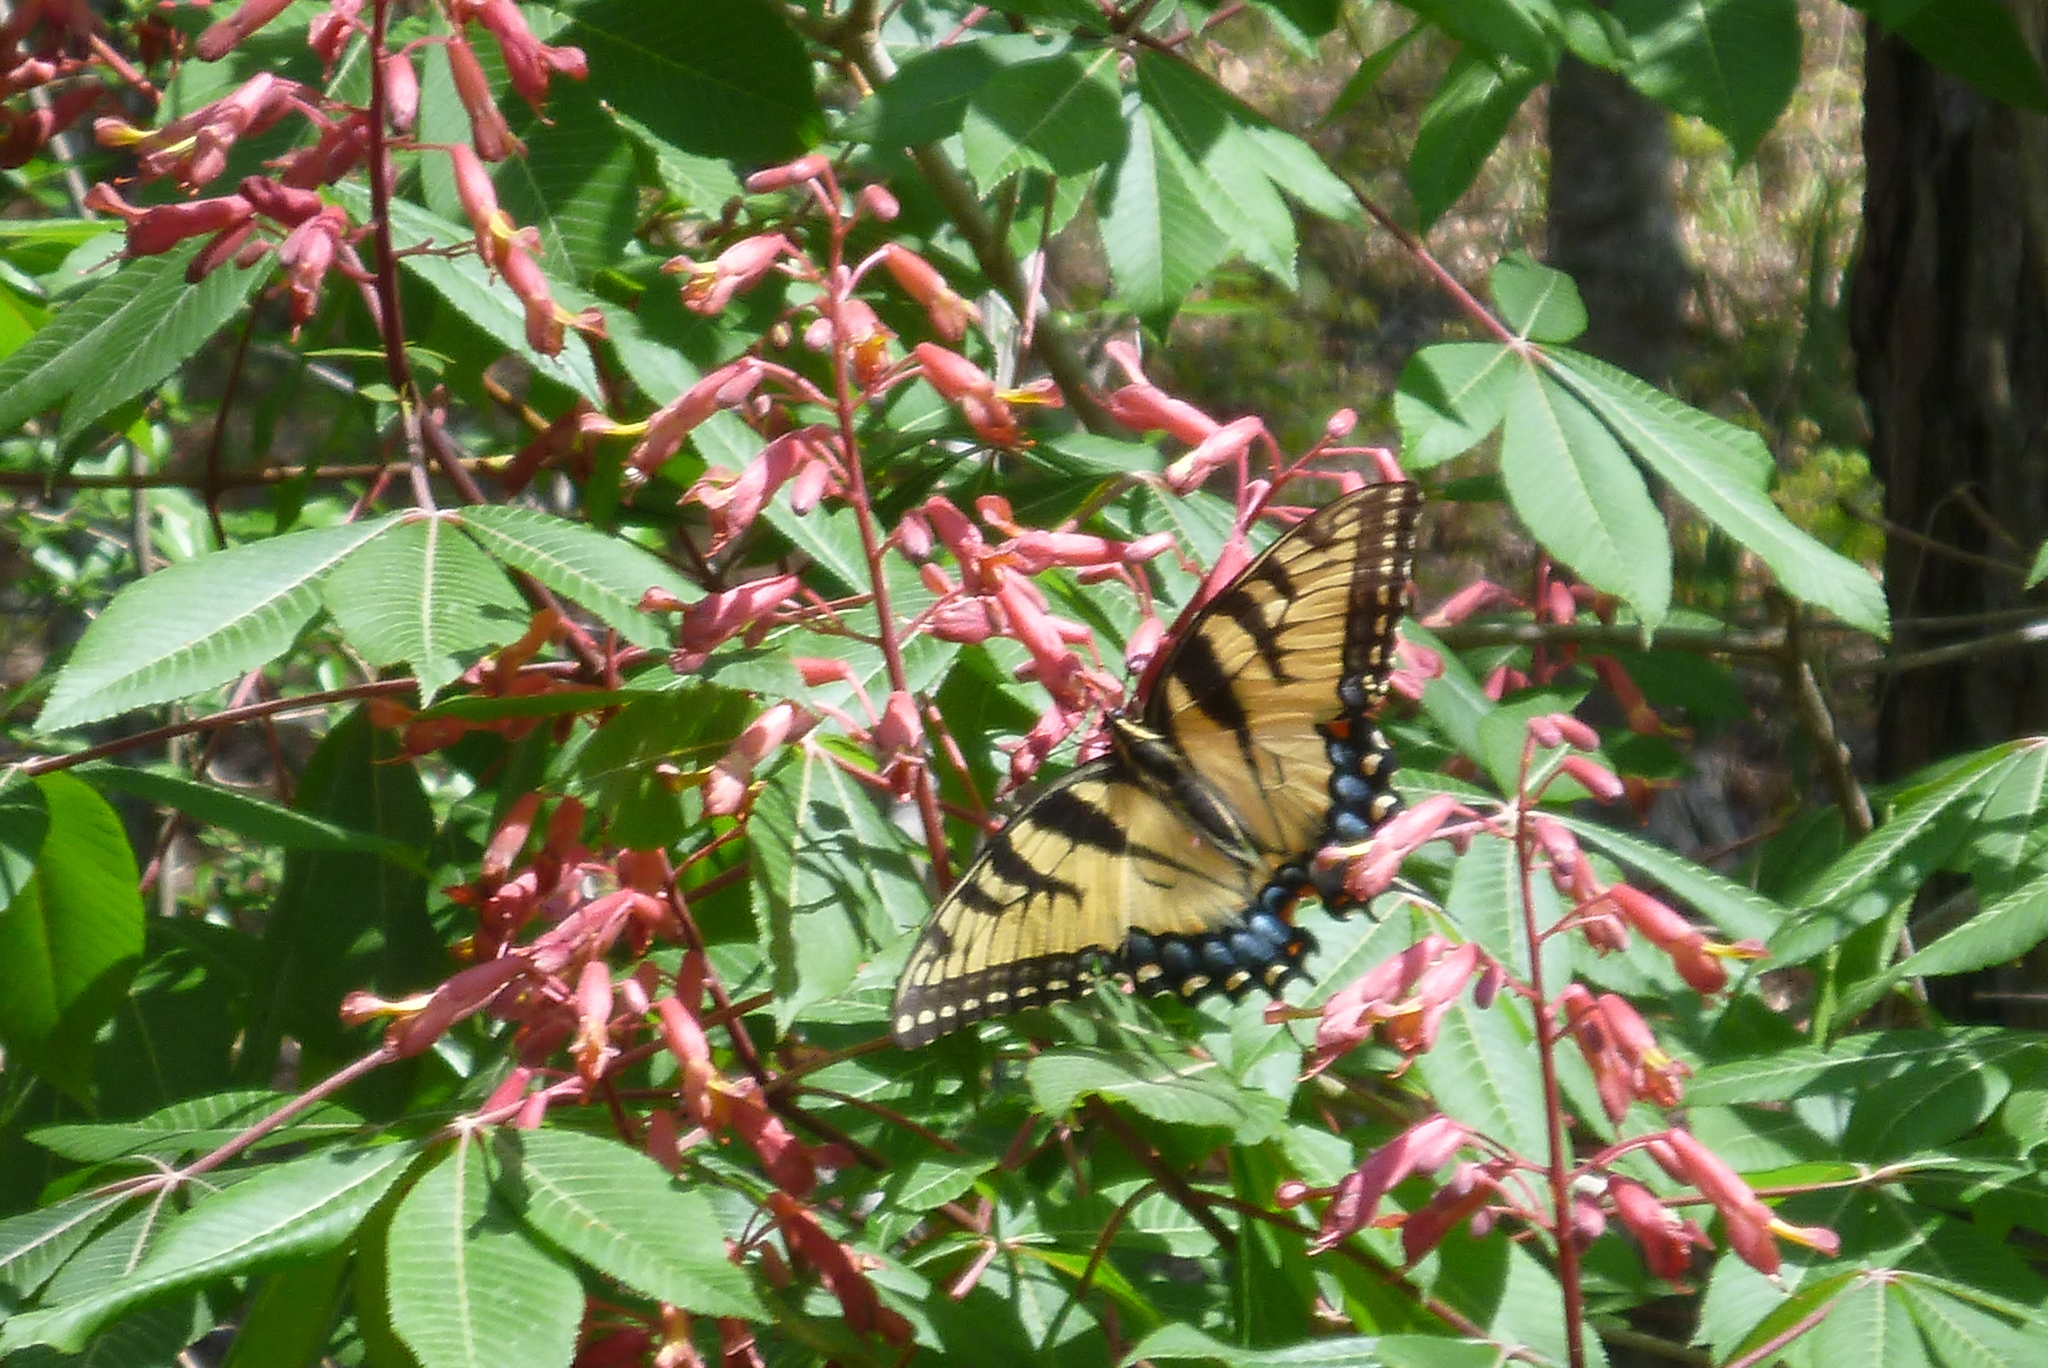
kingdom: Animalia
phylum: Arthropoda
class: Insecta
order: Lepidoptera
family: Papilionidae
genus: Papilio
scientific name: Papilio glaucus
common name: Tiger swallowtail
